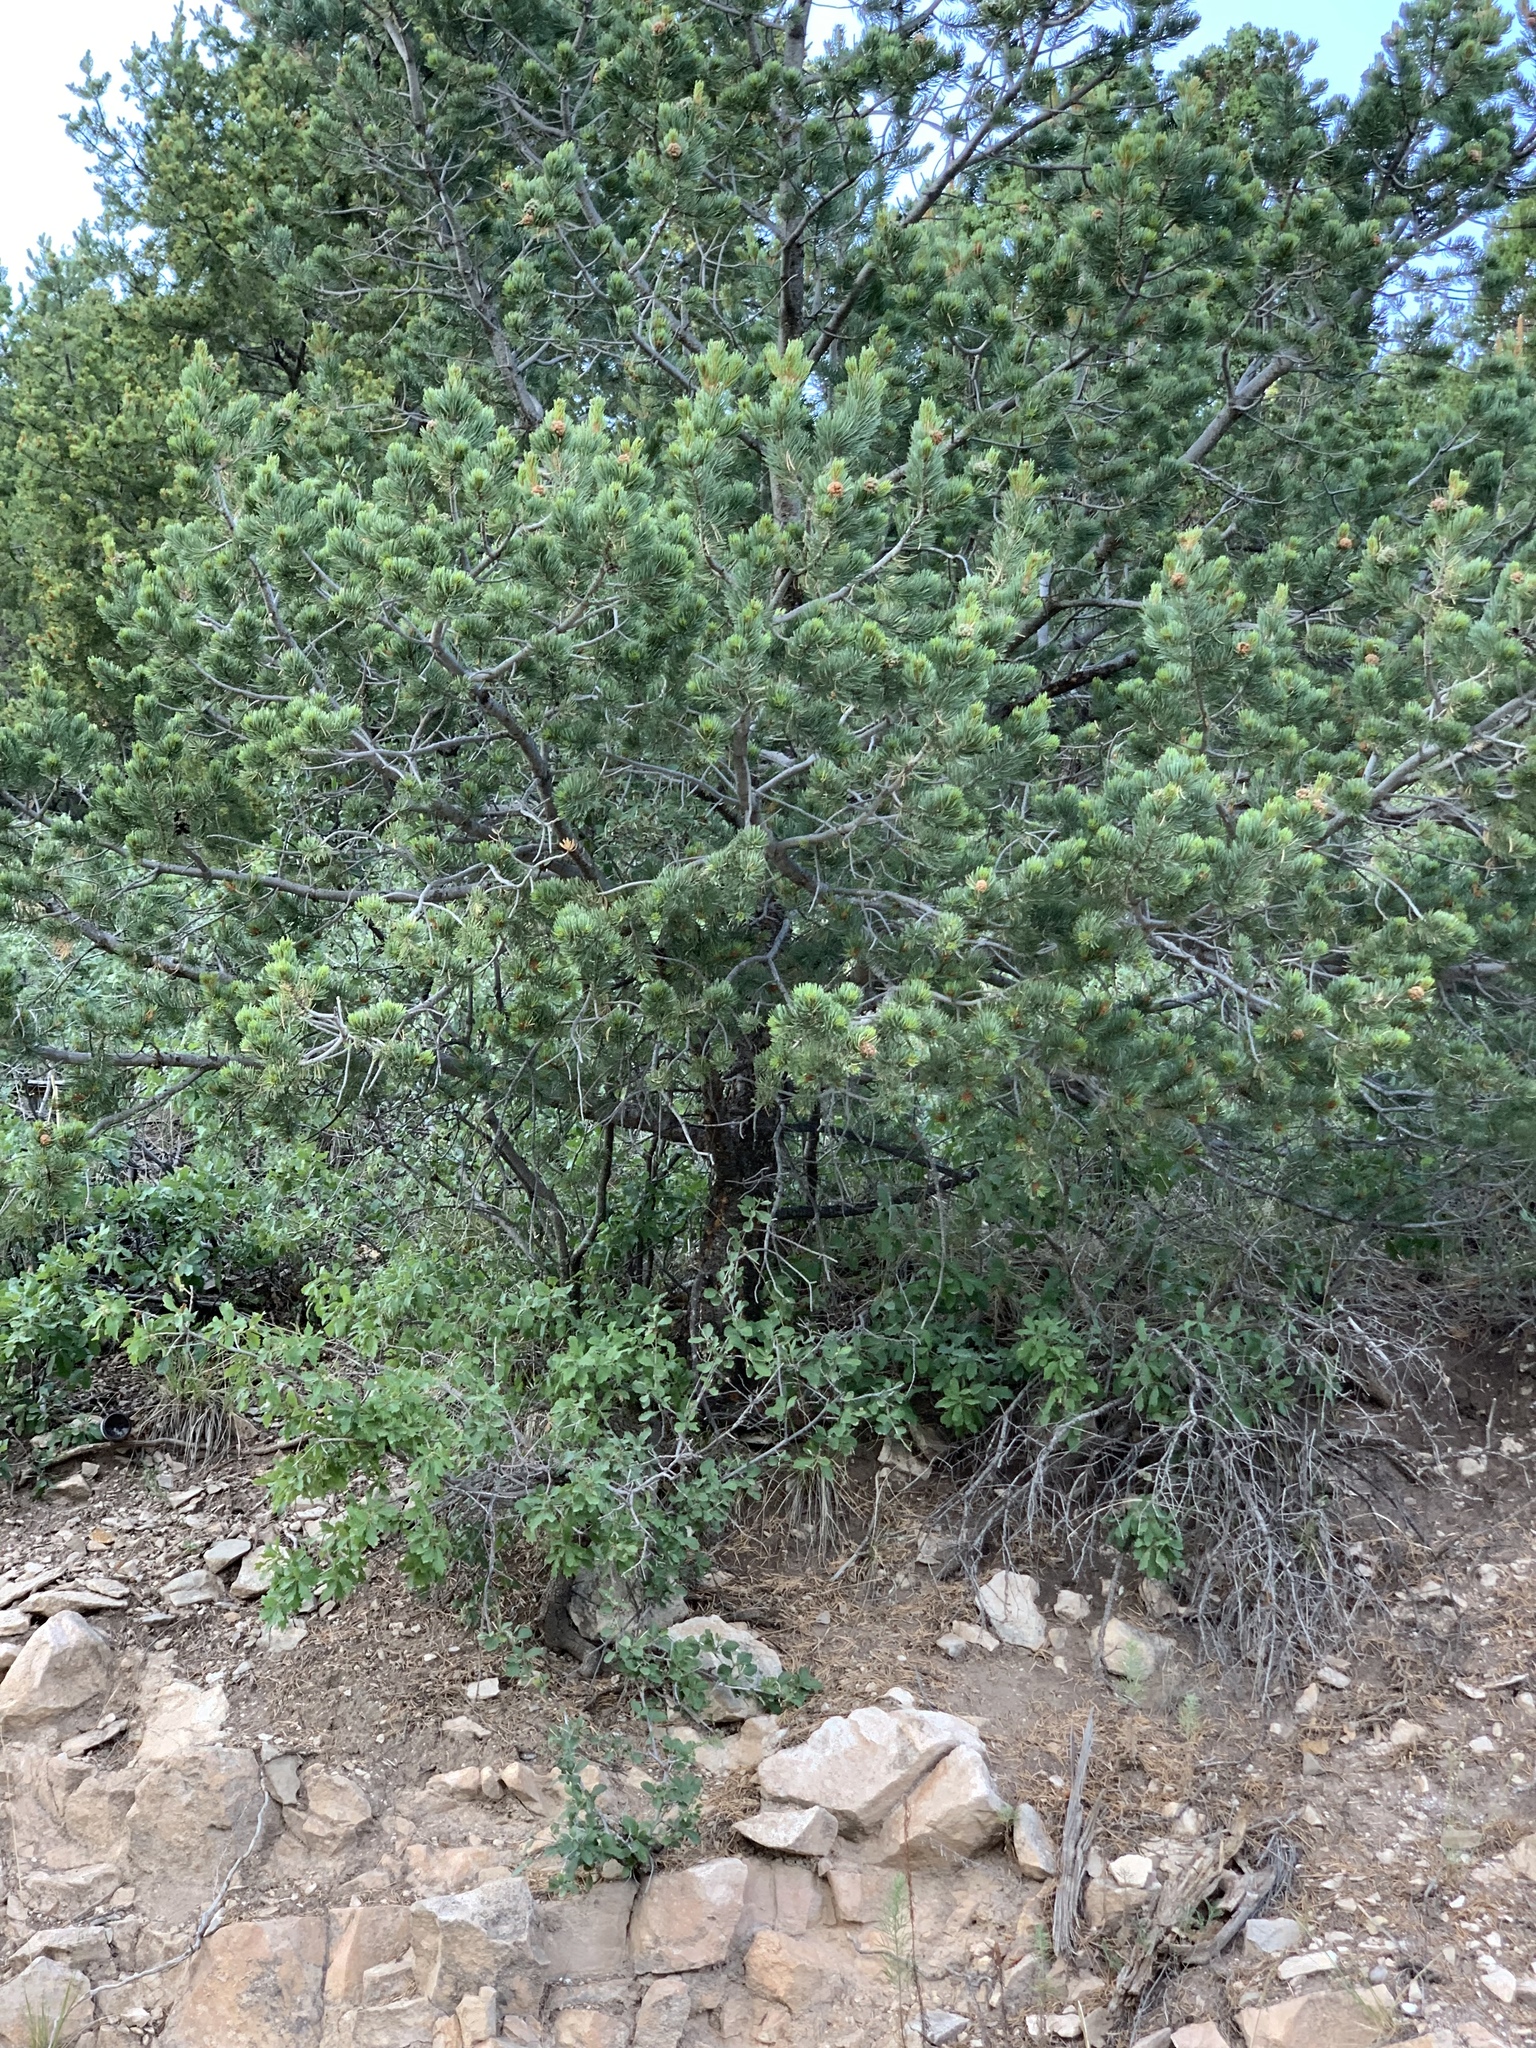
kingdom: Plantae
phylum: Tracheophyta
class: Pinopsida
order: Pinales
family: Pinaceae
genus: Pinus
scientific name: Pinus edulis
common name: Colorado pinyon
